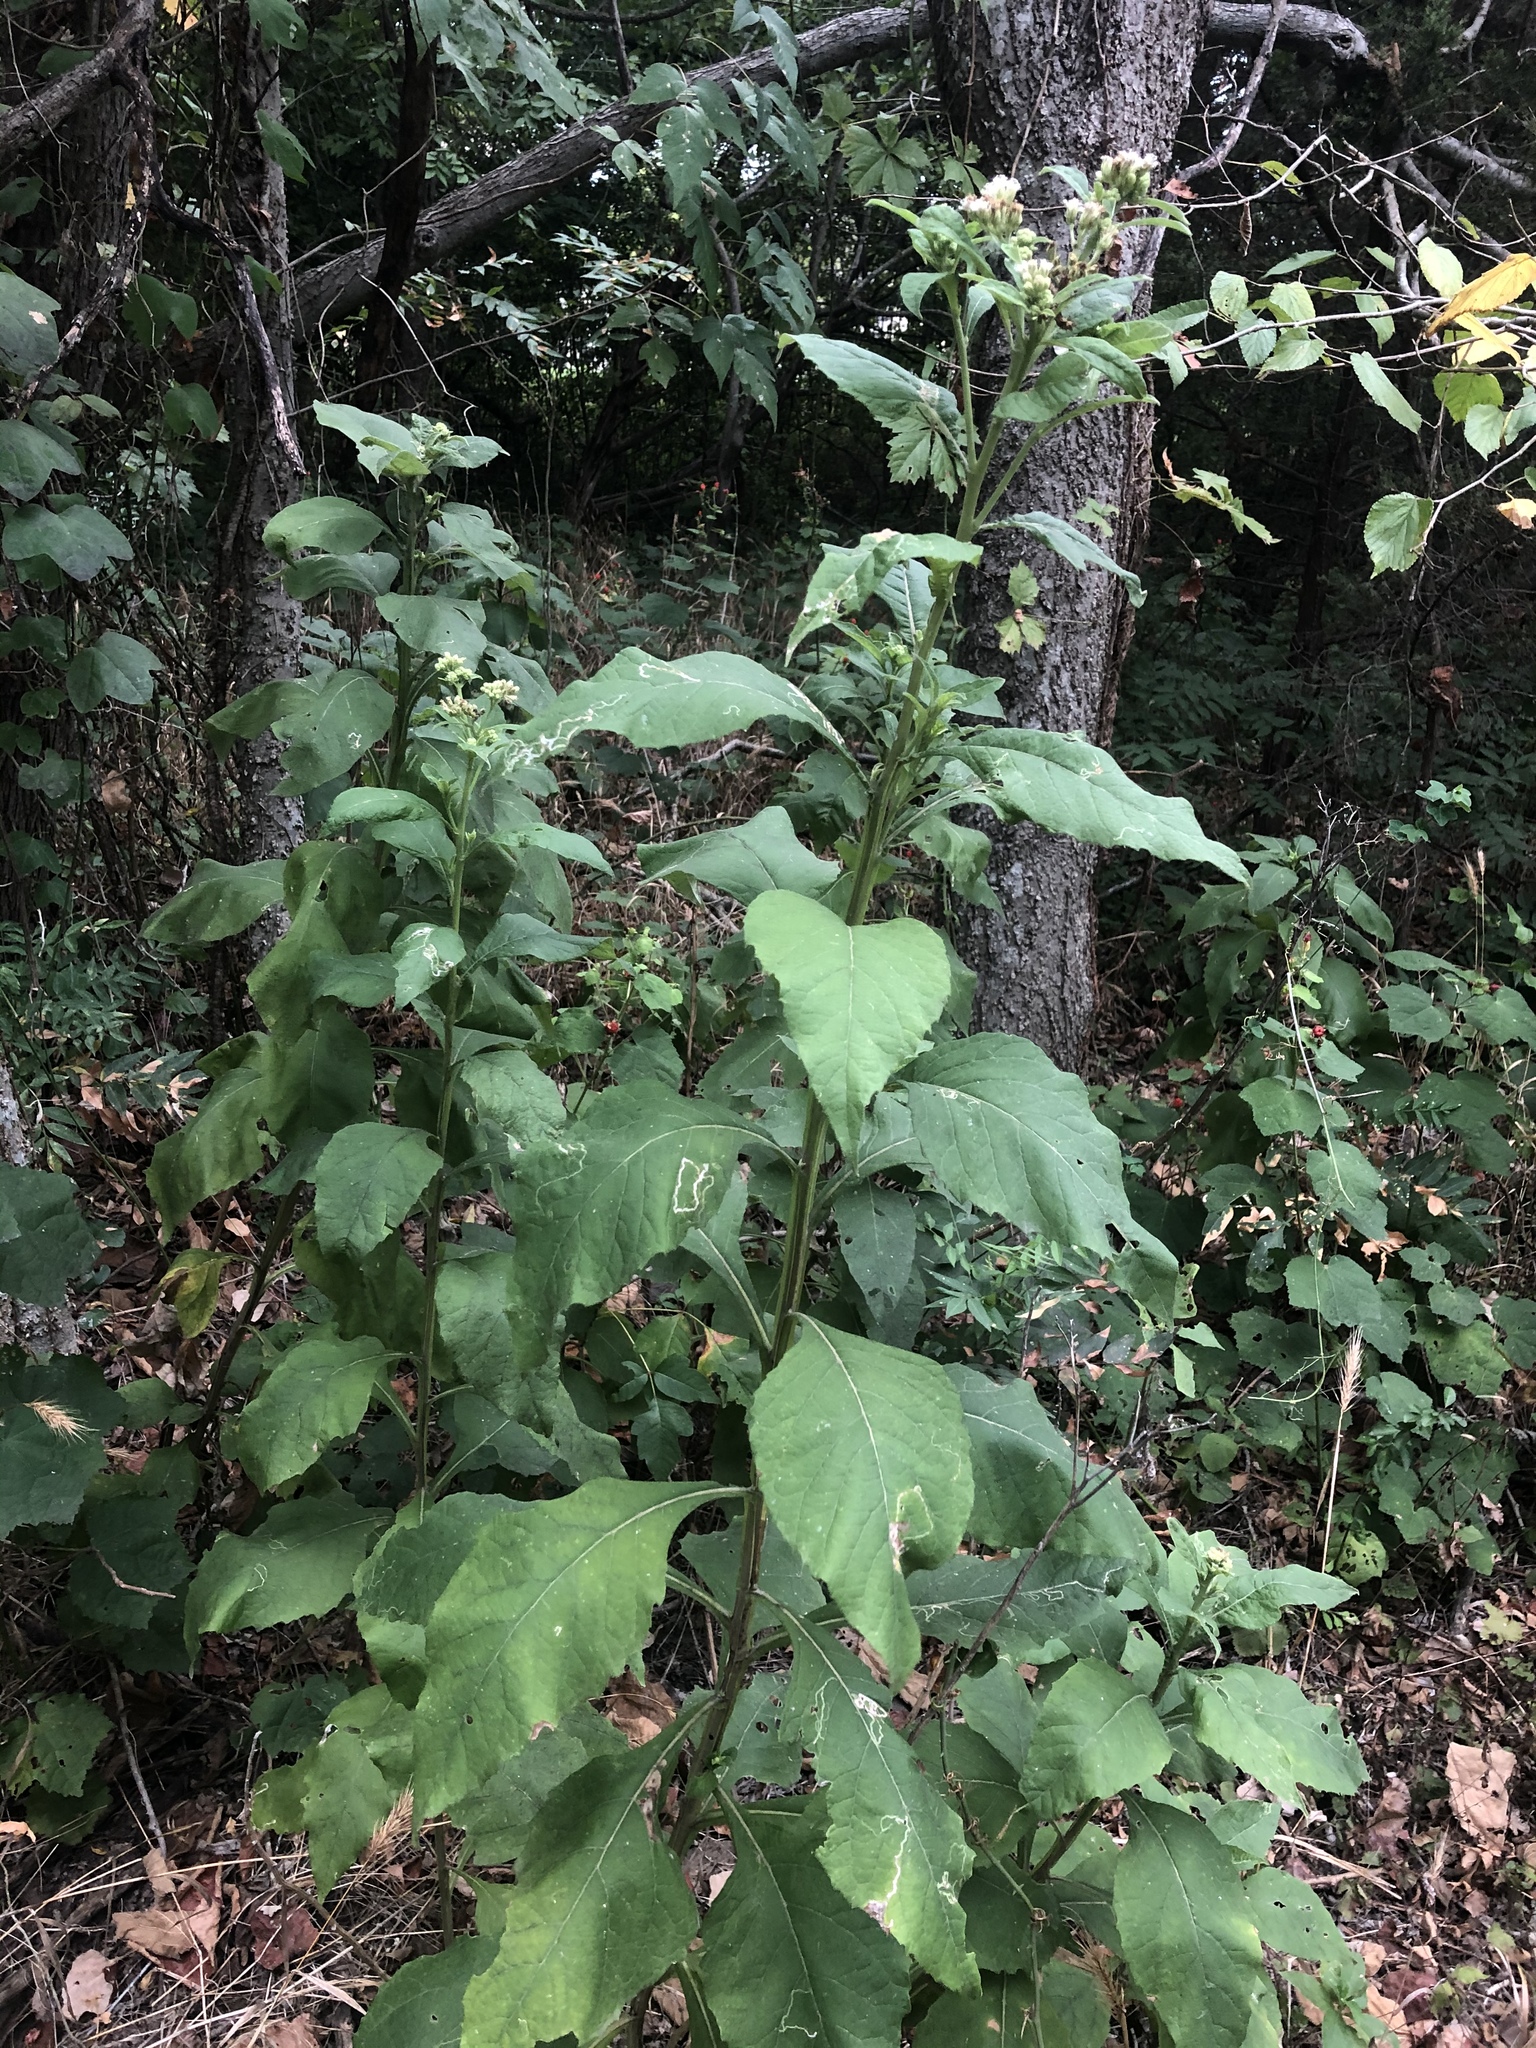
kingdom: Plantae
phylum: Tracheophyta
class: Magnoliopsida
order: Asterales
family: Asteraceae
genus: Verbesina
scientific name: Verbesina virginica
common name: Frostweed
